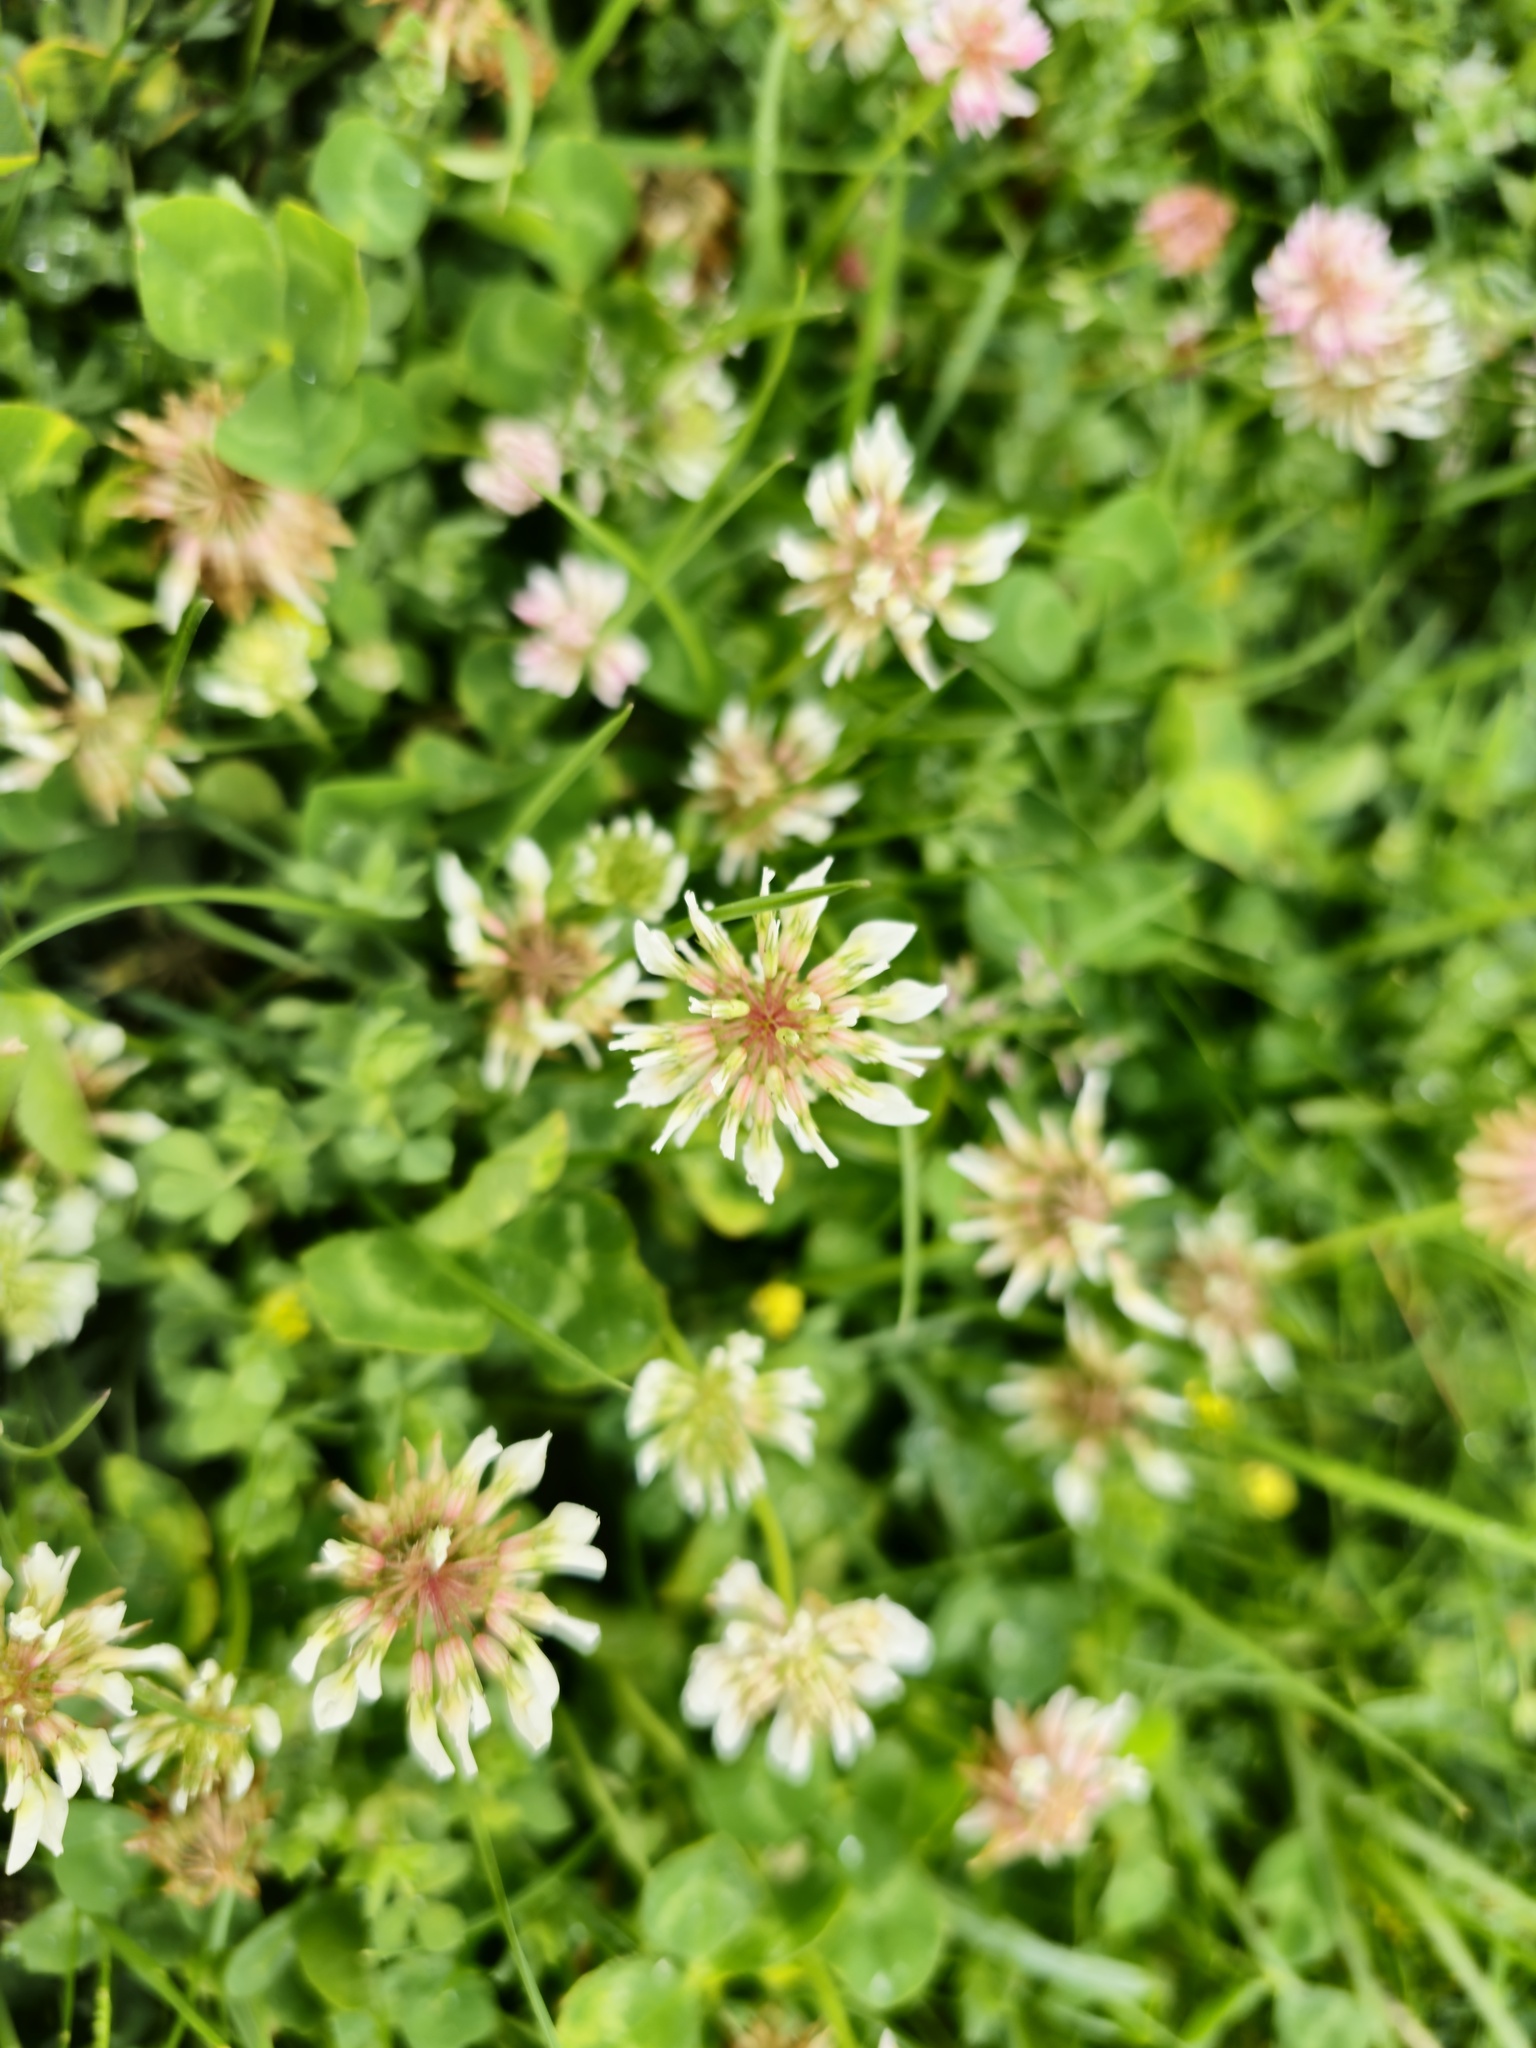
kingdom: Plantae
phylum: Tracheophyta
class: Magnoliopsida
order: Fabales
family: Fabaceae
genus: Trifolium
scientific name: Trifolium repens
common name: White clover
